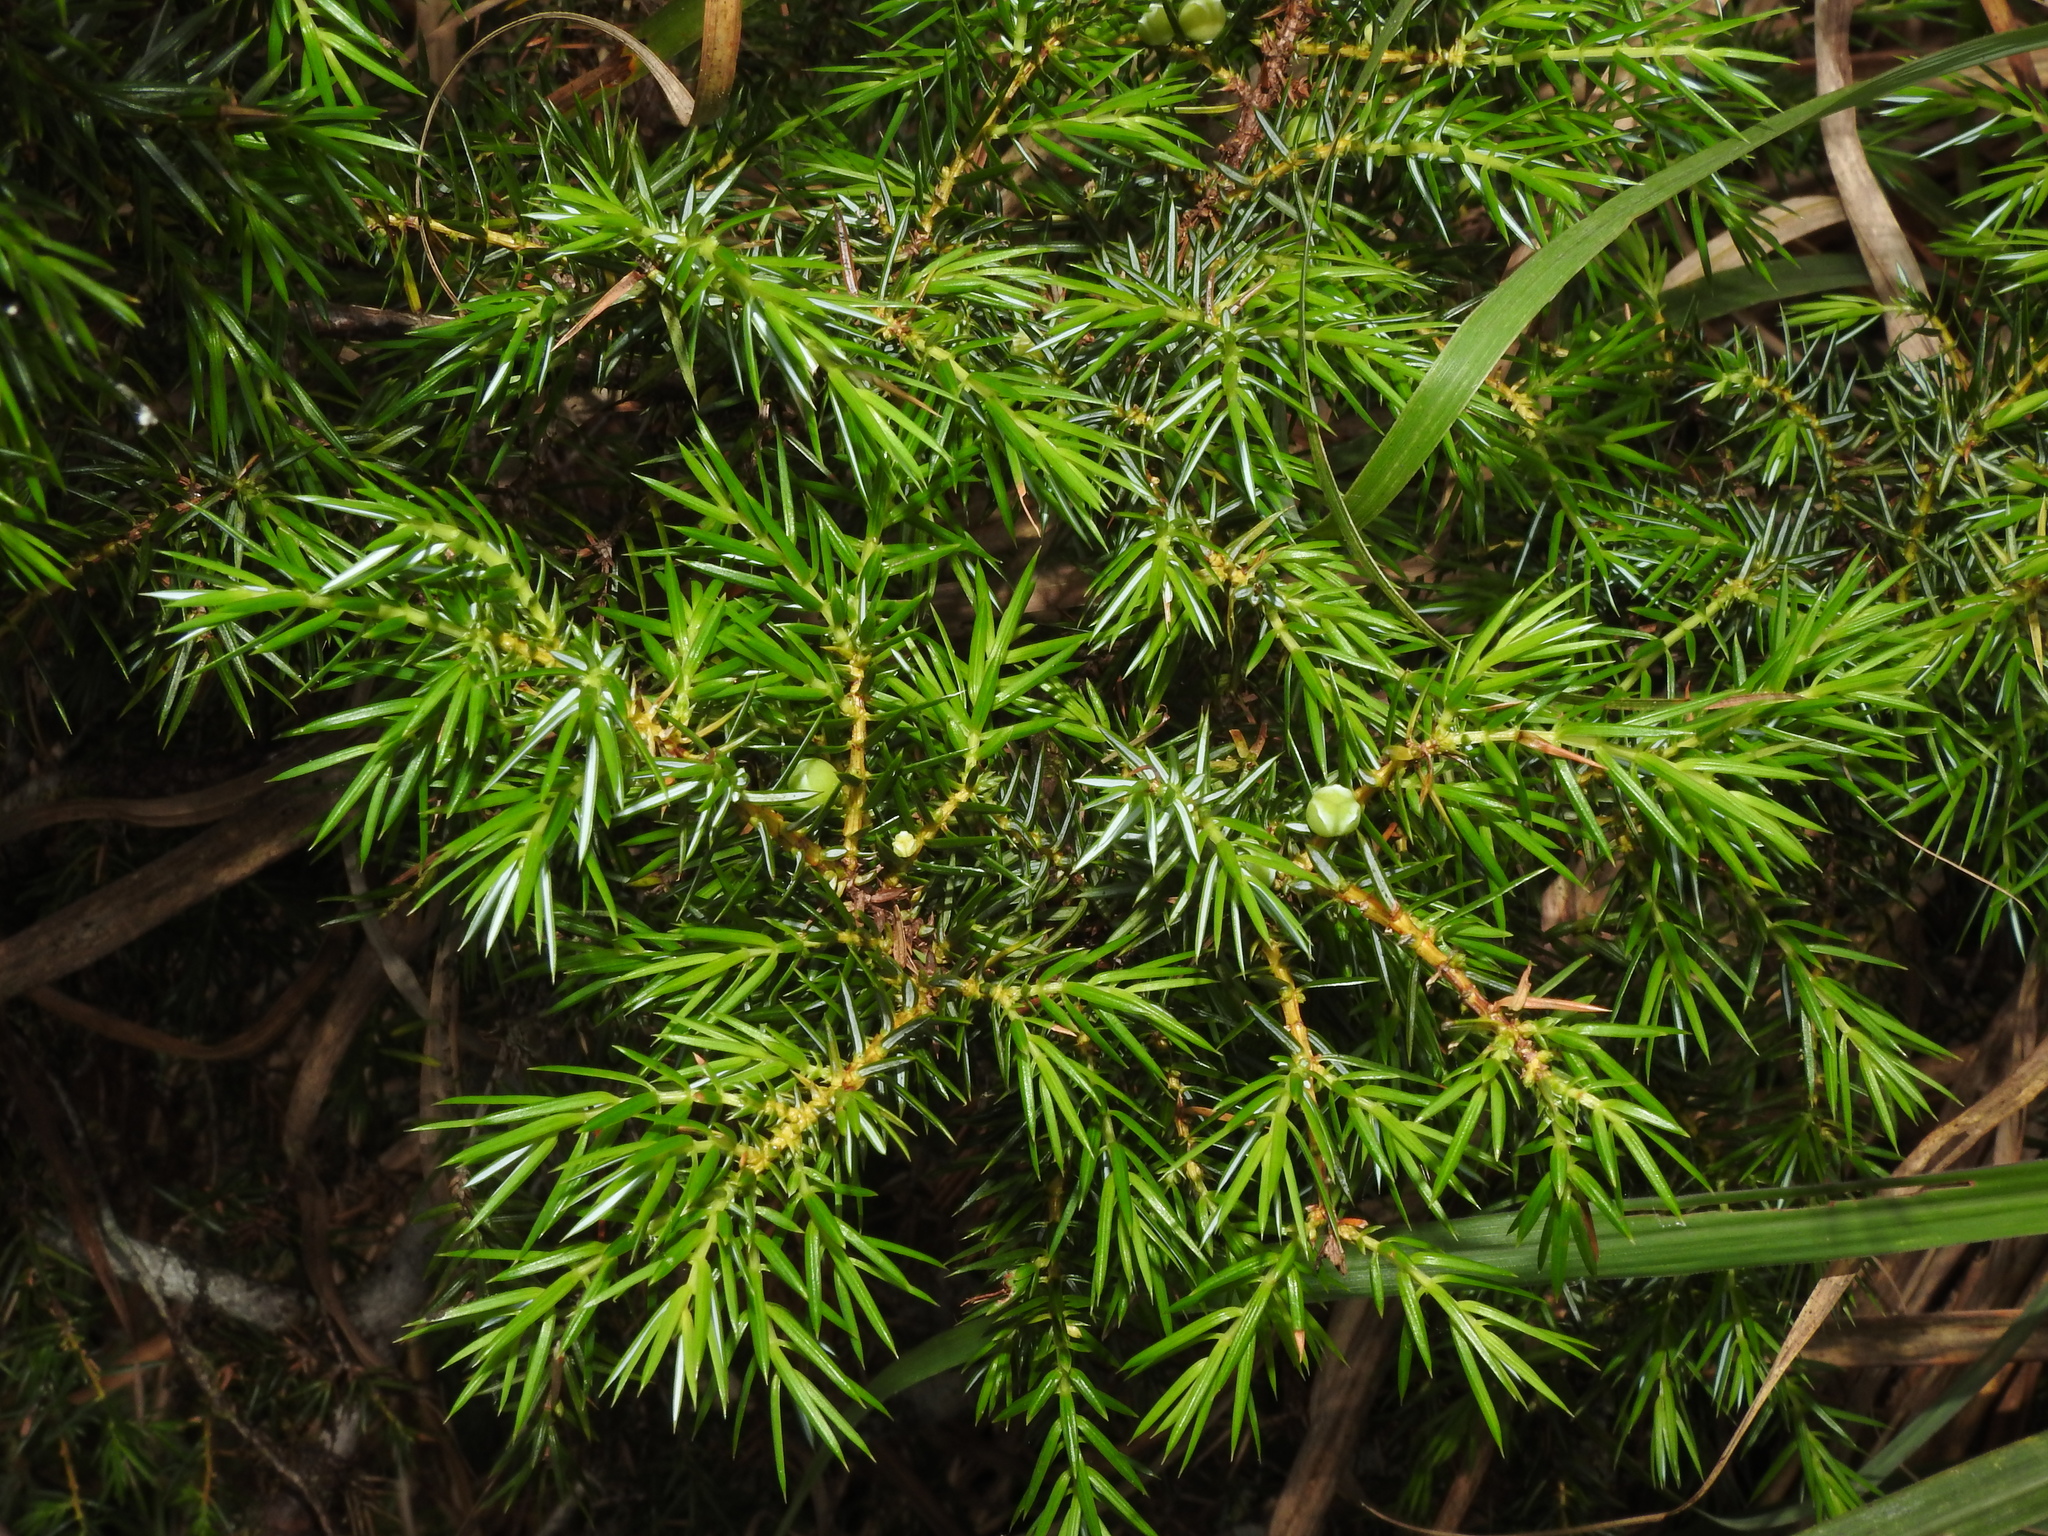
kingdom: Plantae
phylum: Tracheophyta
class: Pinopsida
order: Pinales
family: Cupressaceae
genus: Juniperus
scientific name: Juniperus formosana
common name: Formosan juniper
